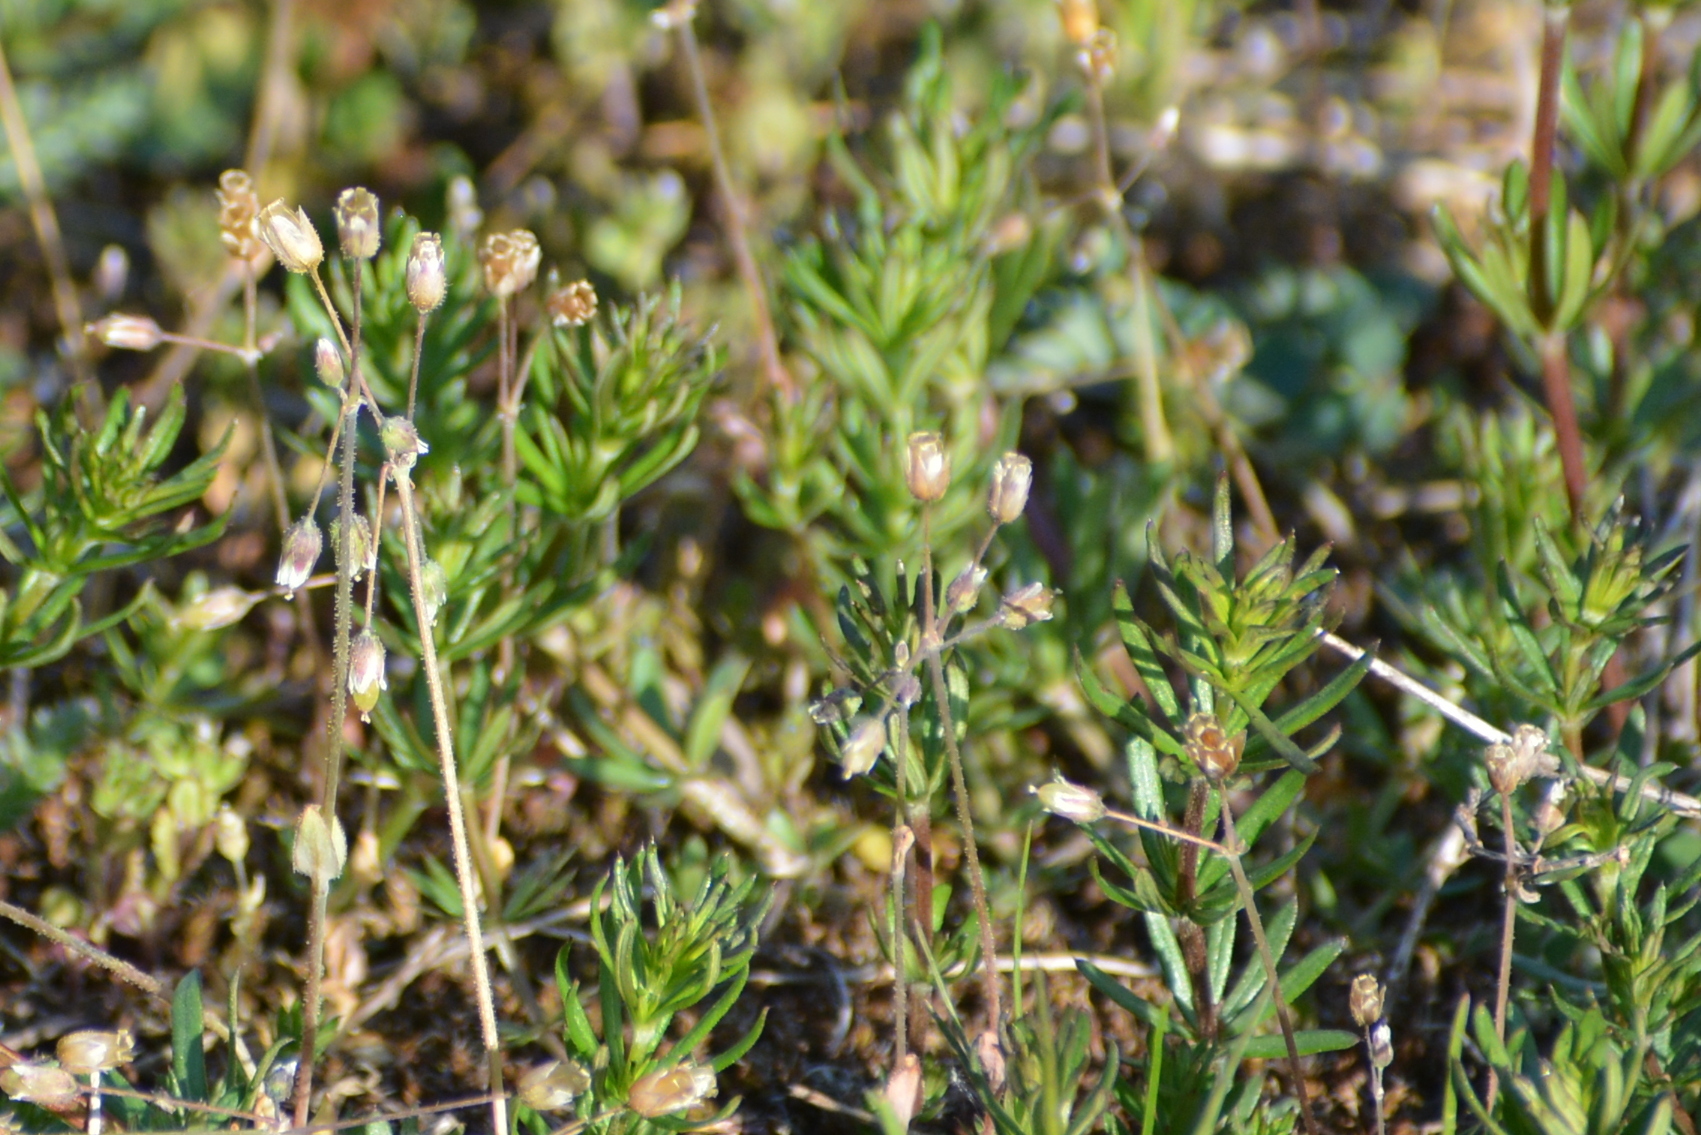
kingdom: Plantae
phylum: Tracheophyta
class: Magnoliopsida
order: Caryophyllales
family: Caryophyllaceae
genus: Holosteum
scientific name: Holosteum umbellatum
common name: Jagged chickweed
